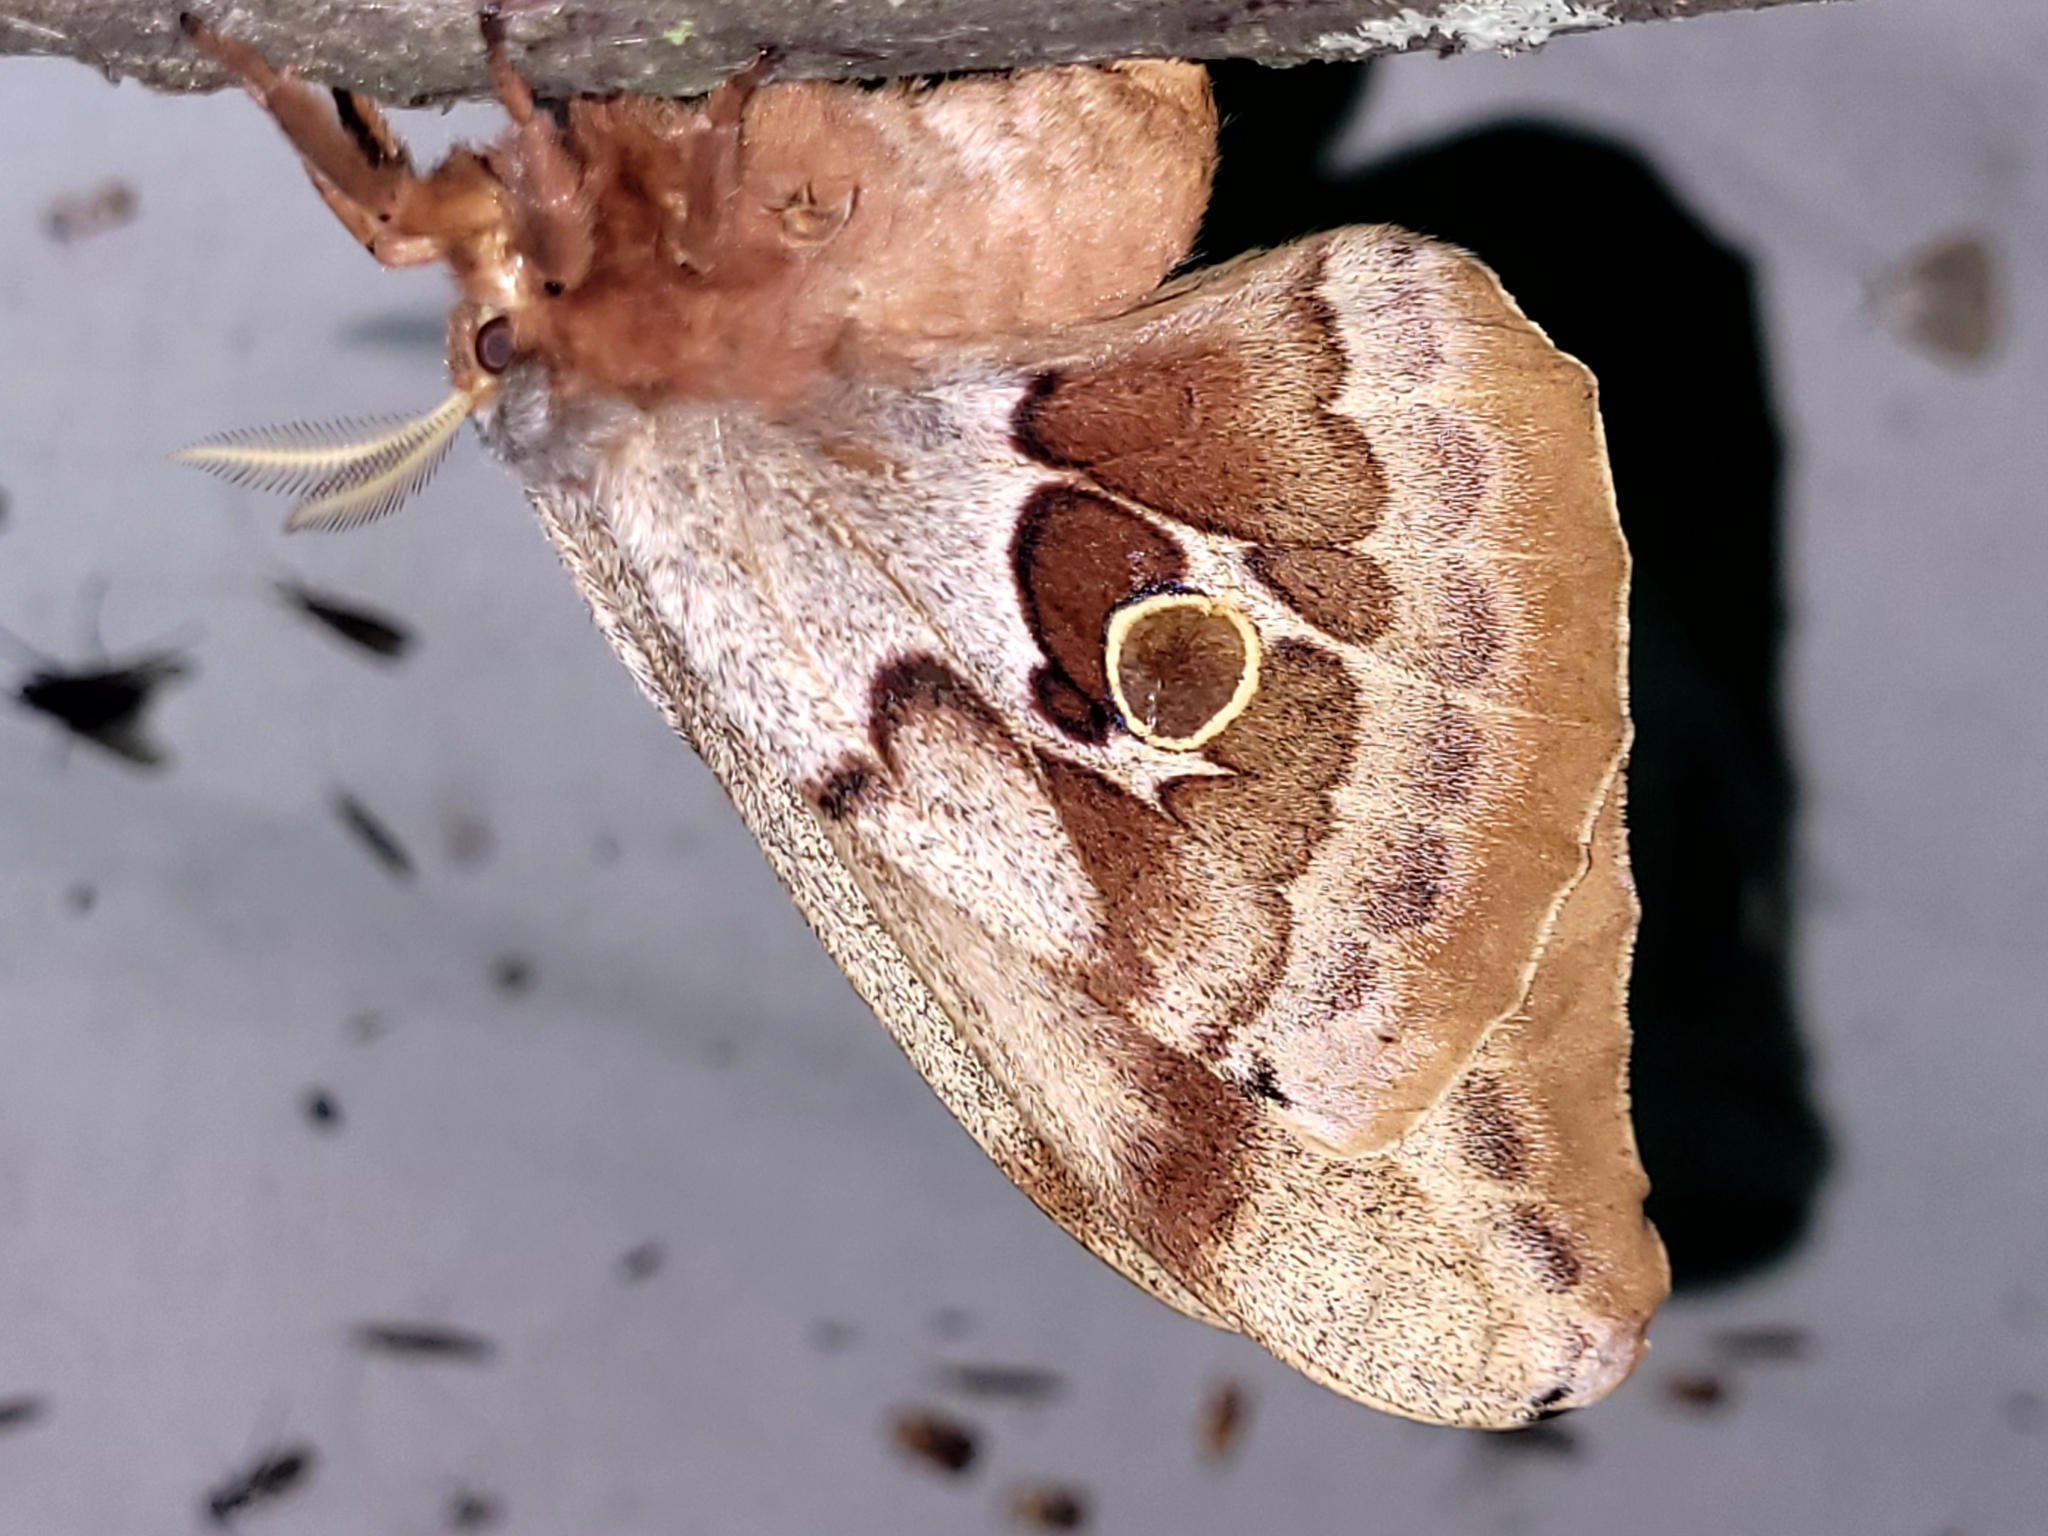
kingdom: Animalia
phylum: Arthropoda
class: Insecta
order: Lepidoptera
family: Saturniidae
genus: Antheraea
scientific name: Antheraea polyphemus
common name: Polyphemus moth
